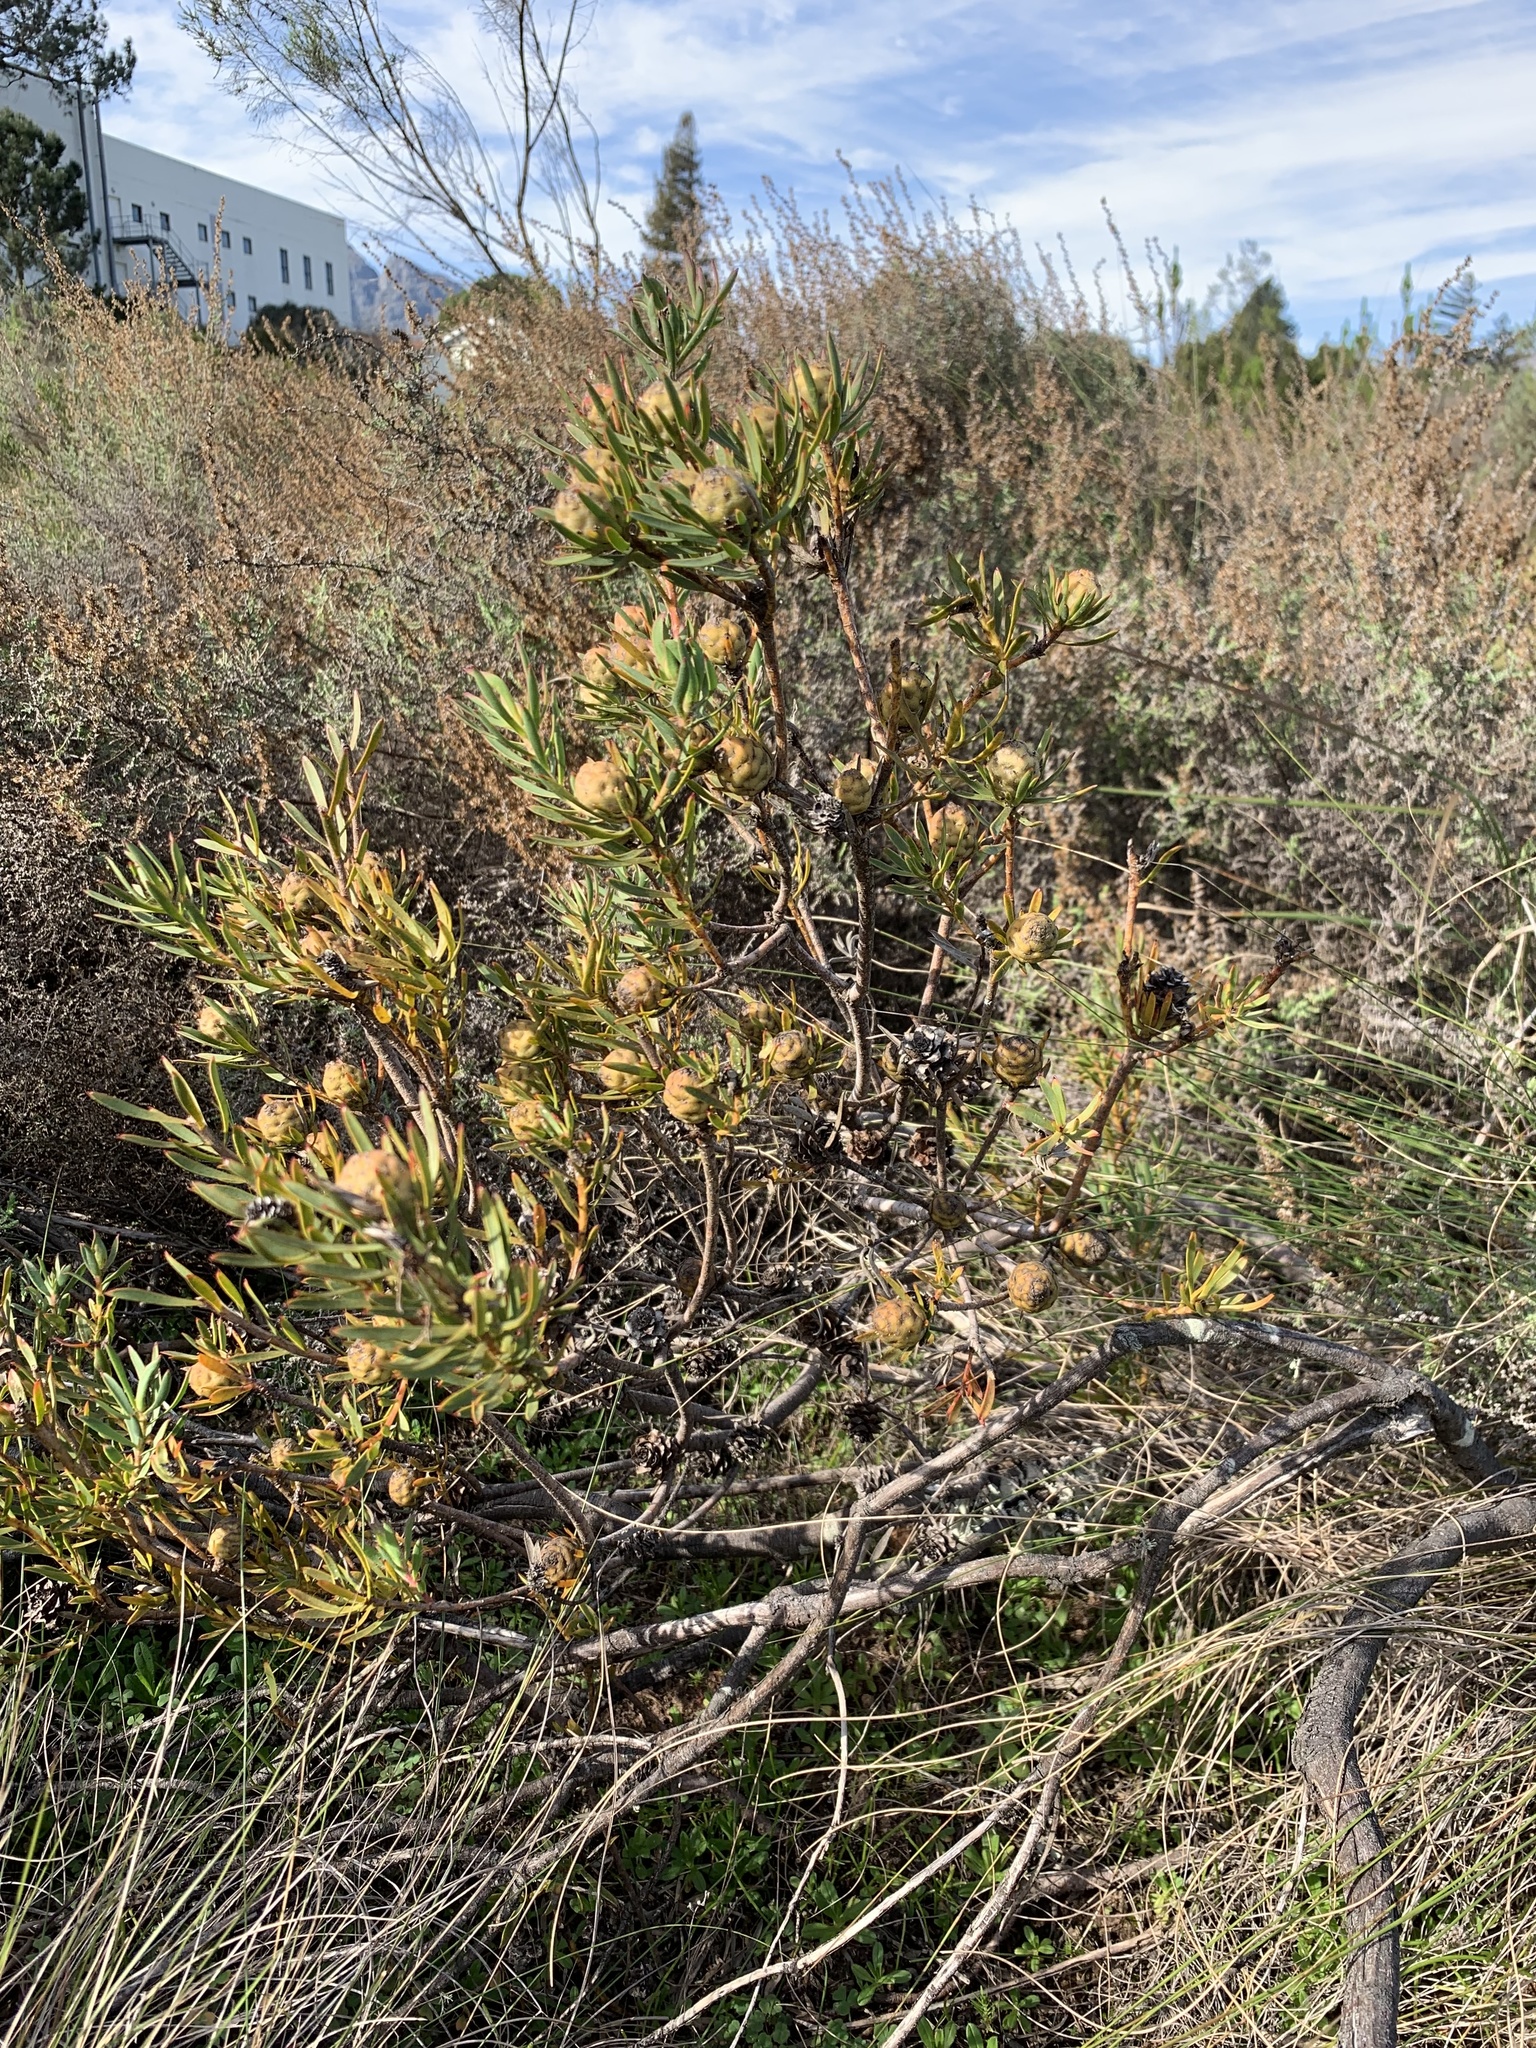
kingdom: Plantae
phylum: Tracheophyta
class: Magnoliopsida
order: Proteales
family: Proteaceae
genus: Leucadendron
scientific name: Leucadendron lanigerum
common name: Shale conebush
